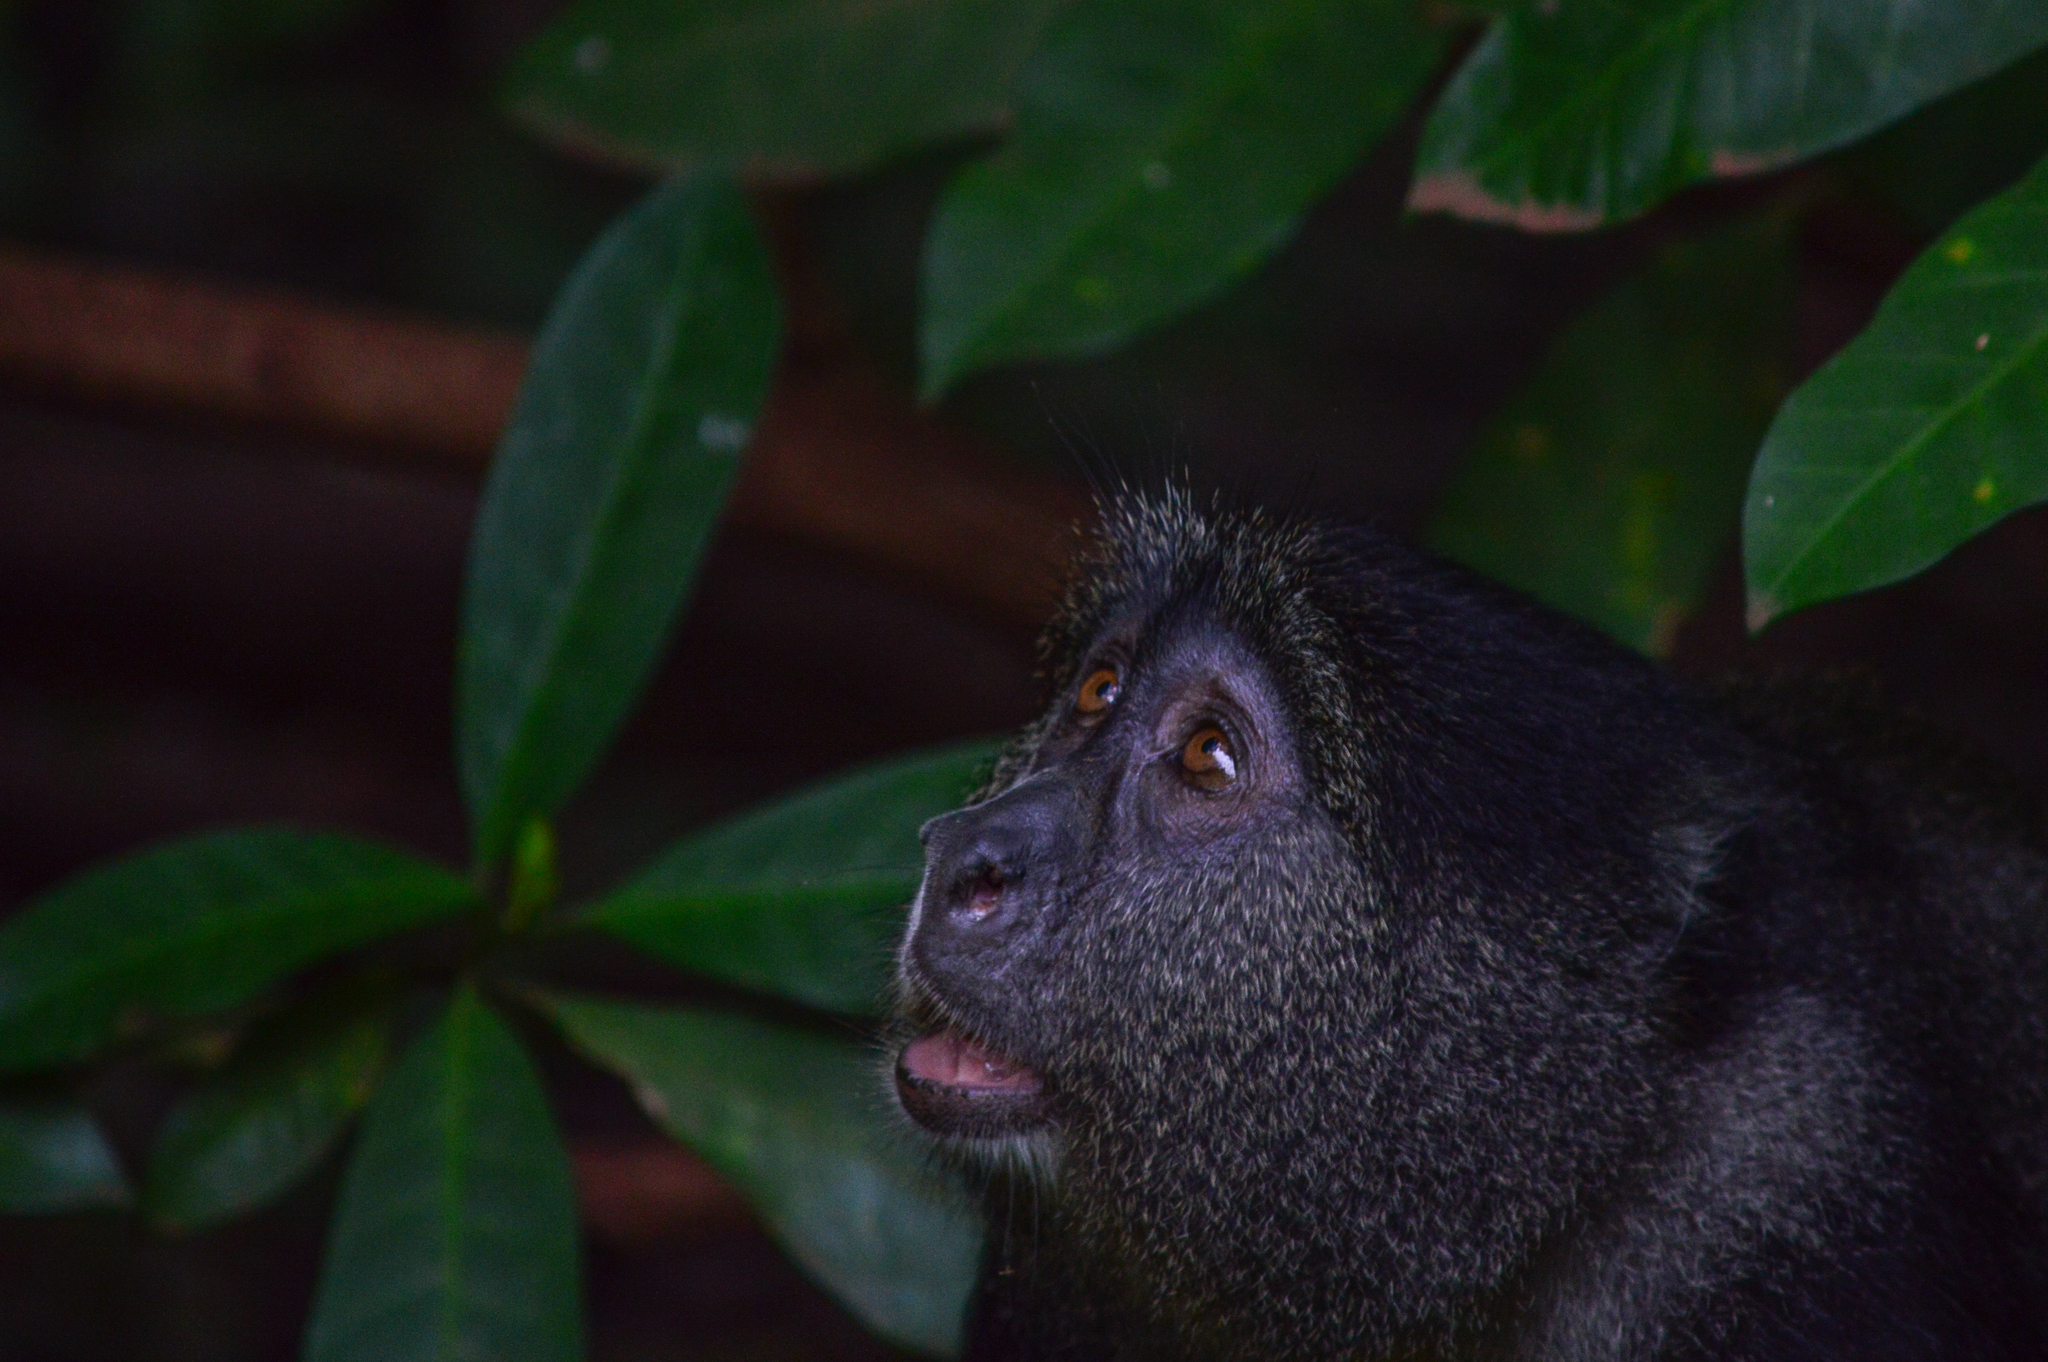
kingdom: Animalia
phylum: Chordata
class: Mammalia
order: Primates
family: Cercopithecidae
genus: Cercopithecus
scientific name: Cercopithecus mitis
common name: Blue monkey
